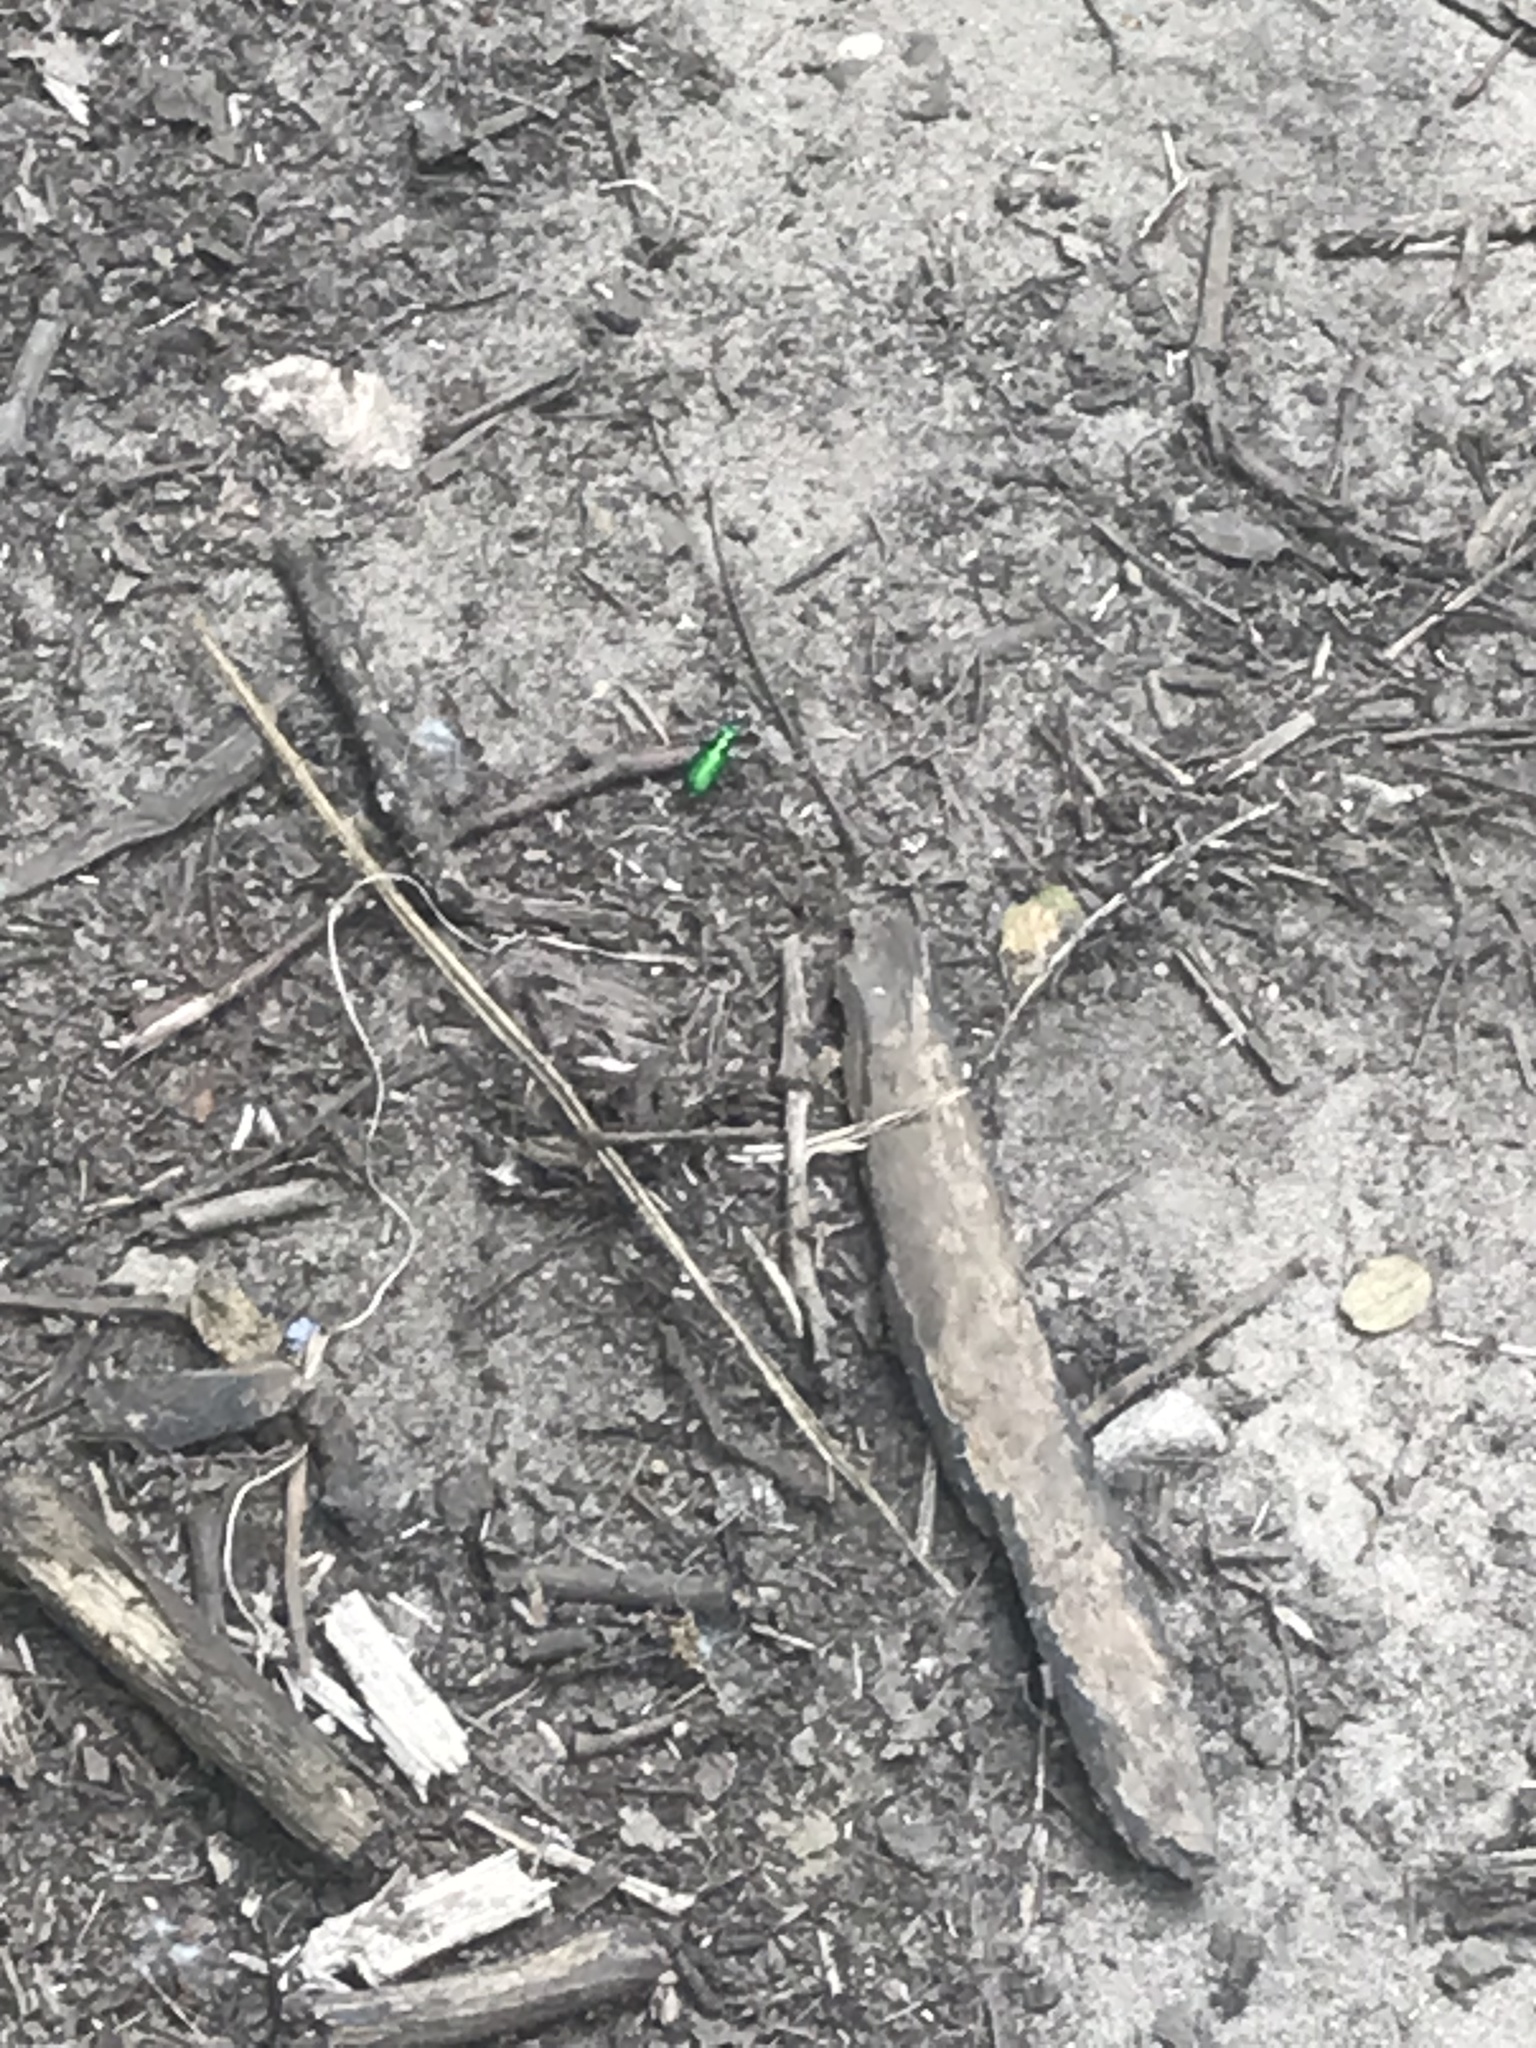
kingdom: Animalia
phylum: Arthropoda
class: Insecta
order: Coleoptera
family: Carabidae
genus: Cicindela
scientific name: Cicindela sexguttata
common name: Six-spotted tiger beetle
